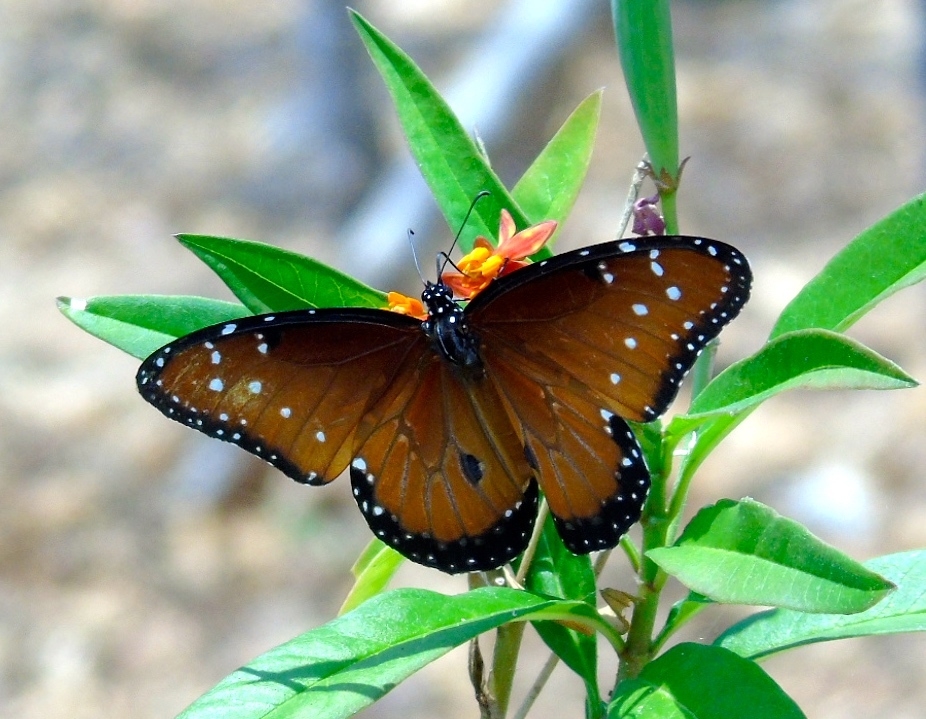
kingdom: Animalia
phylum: Arthropoda
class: Insecta
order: Lepidoptera
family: Nymphalidae
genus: Danaus
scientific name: Danaus gilippus
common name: Queen
